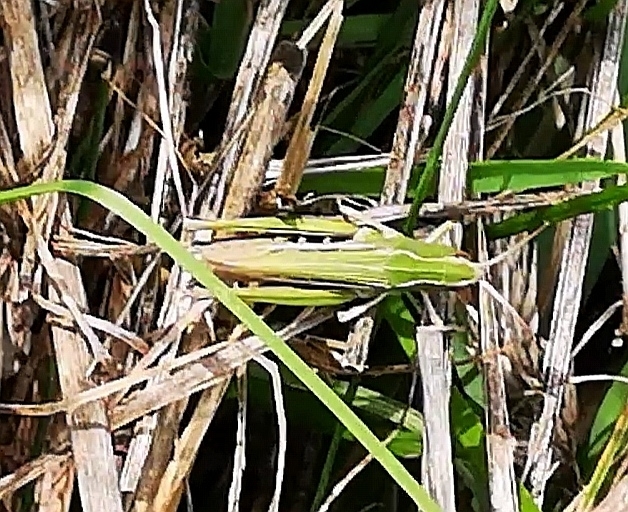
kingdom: Animalia
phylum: Arthropoda
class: Insecta
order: Orthoptera
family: Acrididae
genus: Omocestus
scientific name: Omocestus viridulus
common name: Common green grasshopper
